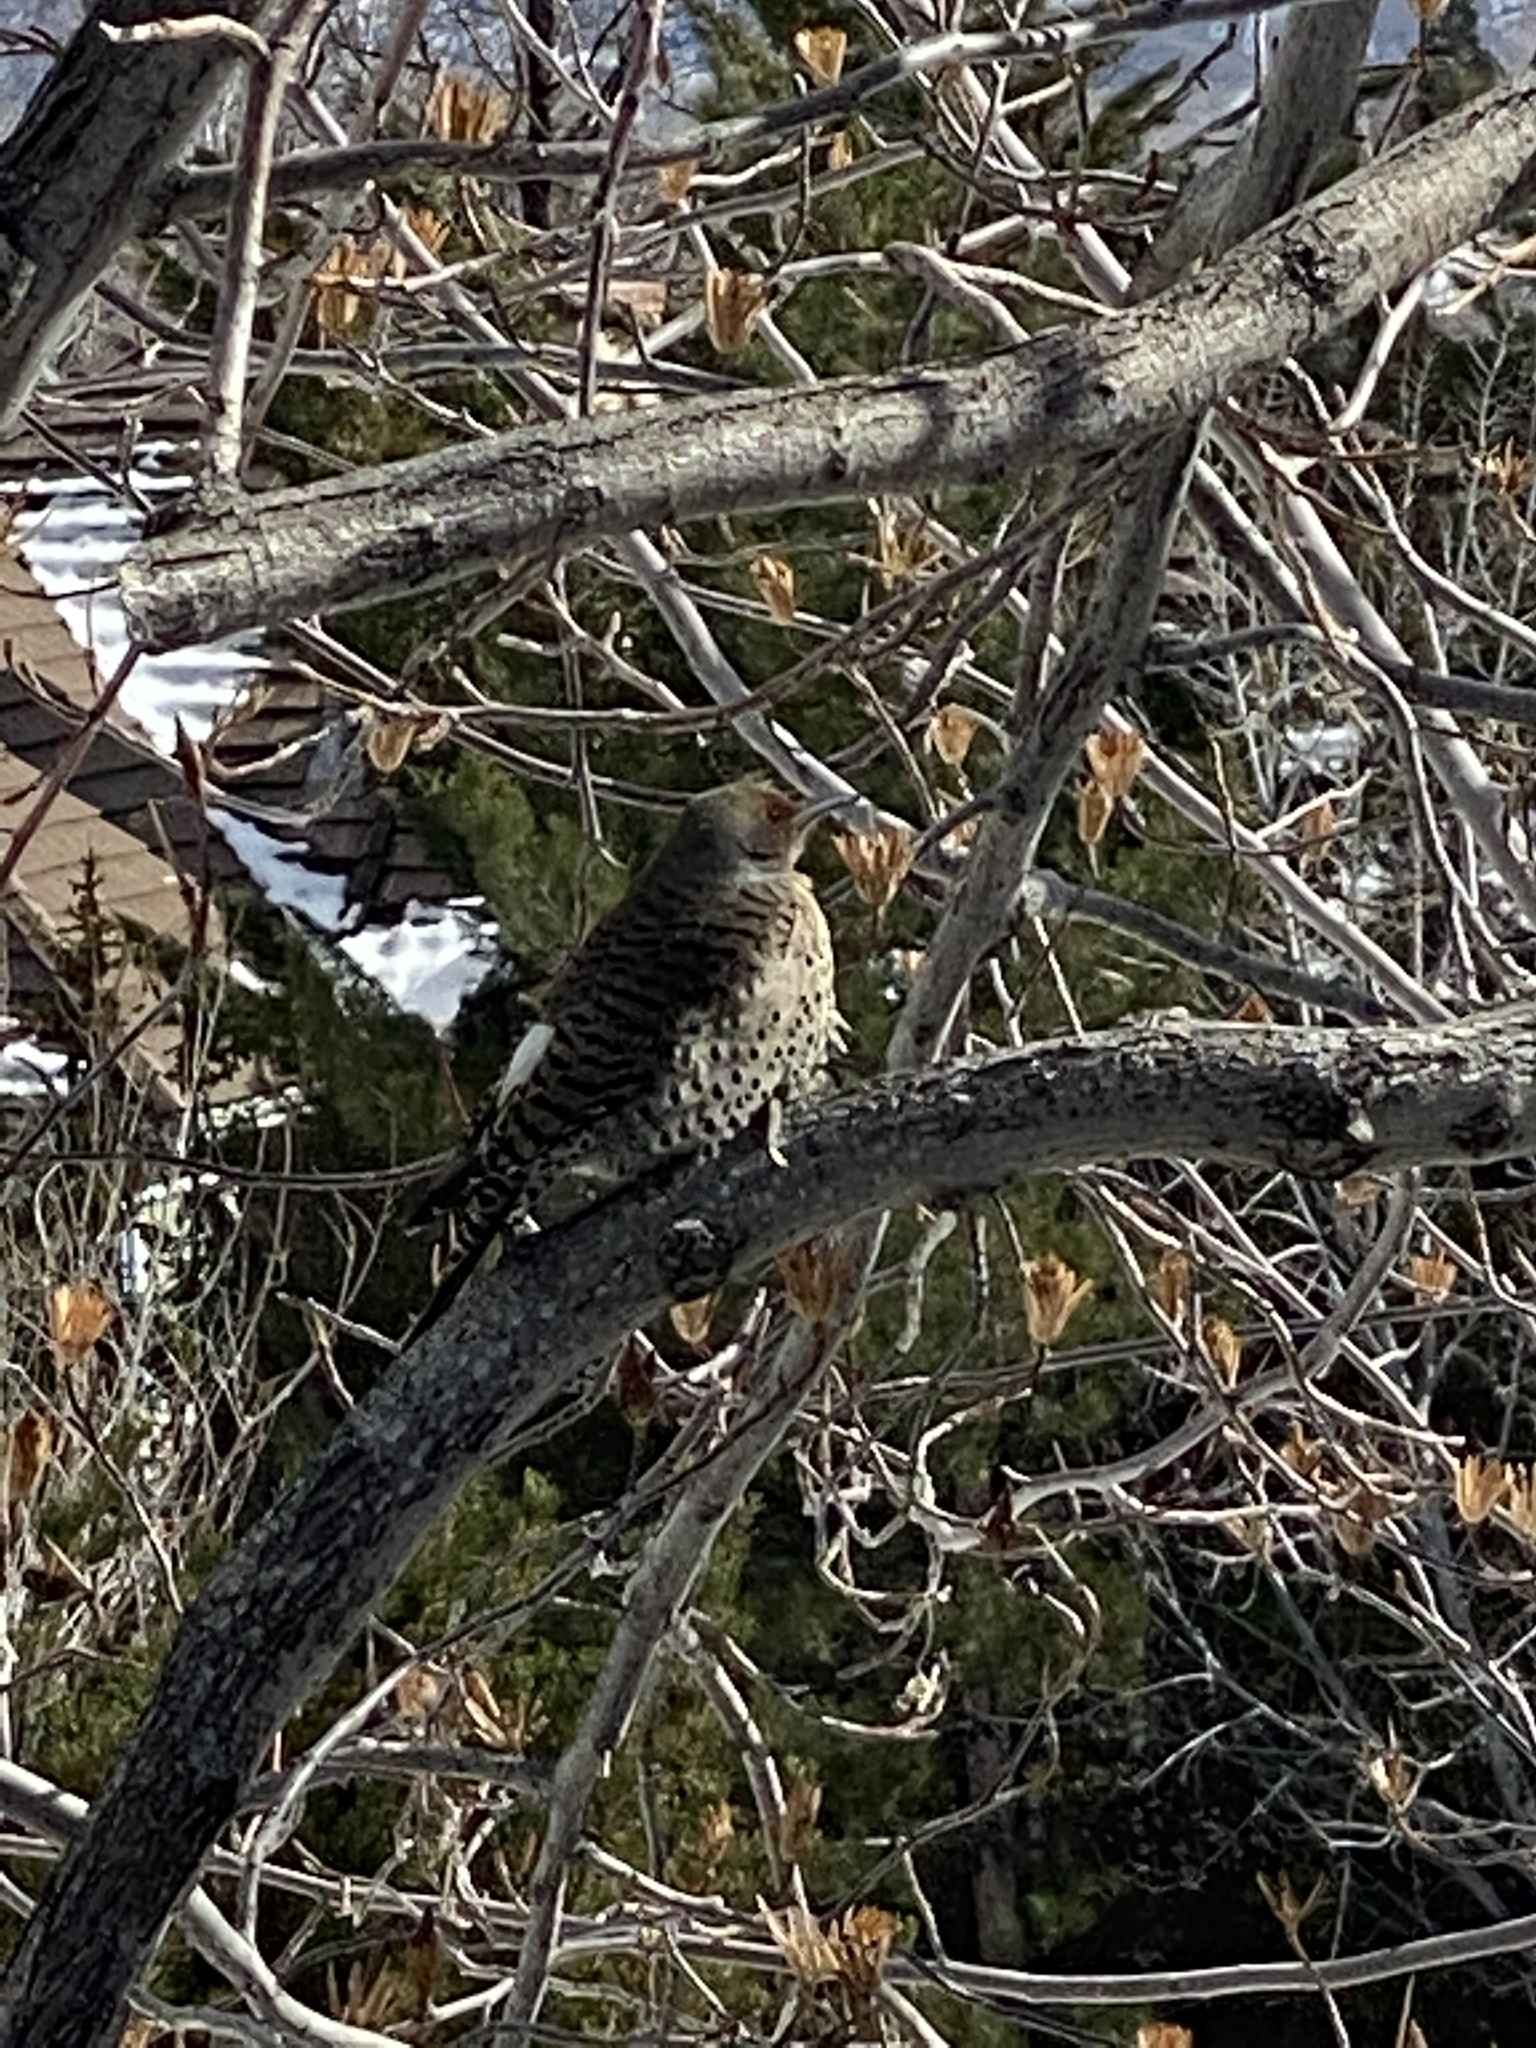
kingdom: Animalia
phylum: Chordata
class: Aves
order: Piciformes
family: Picidae
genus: Colaptes
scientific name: Colaptes auratus
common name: Northern flicker
